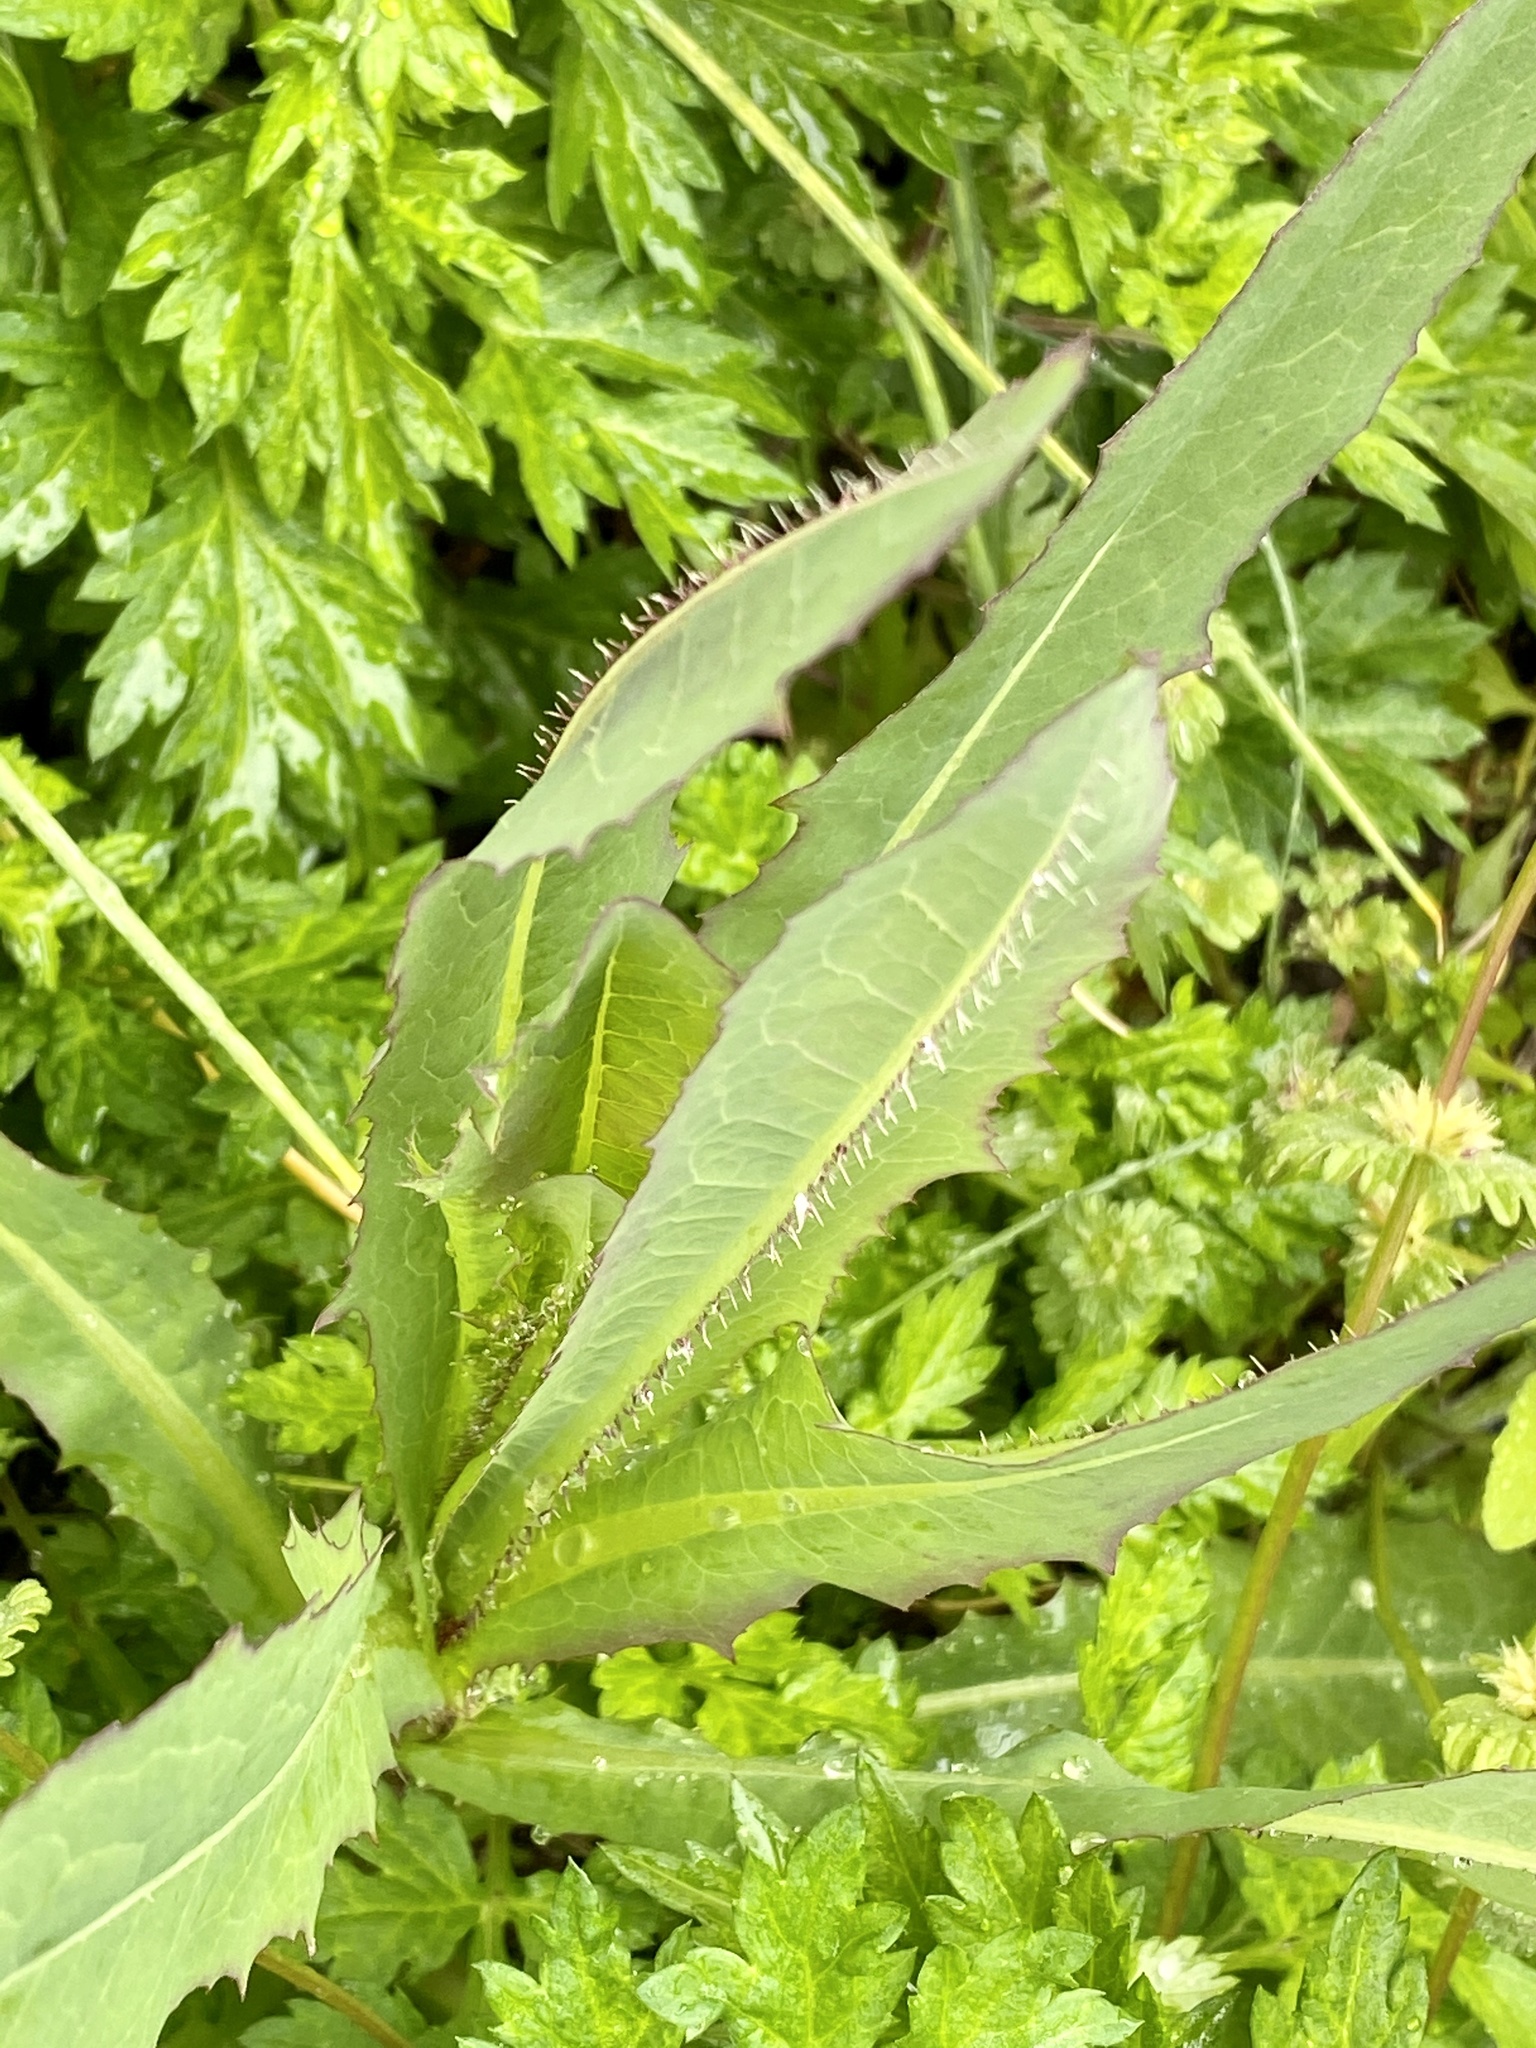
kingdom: Plantae
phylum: Tracheophyta
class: Magnoliopsida
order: Asterales
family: Asteraceae
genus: Lactuca
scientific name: Lactuca serriola
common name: Prickly lettuce
